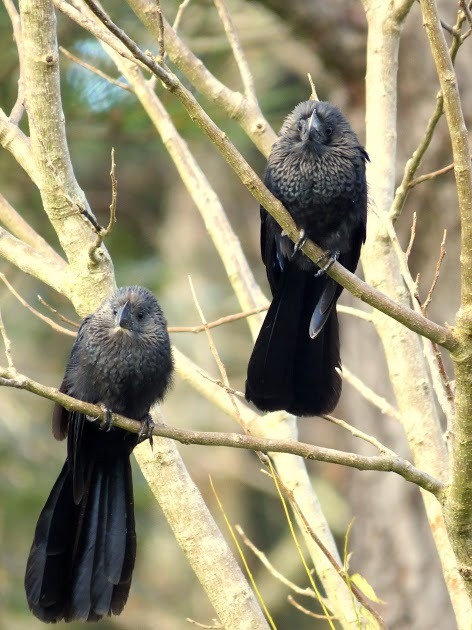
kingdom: Animalia
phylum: Chordata
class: Aves
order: Cuculiformes
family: Cuculidae
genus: Crotophaga
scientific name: Crotophaga ani
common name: Smooth-billed ani
